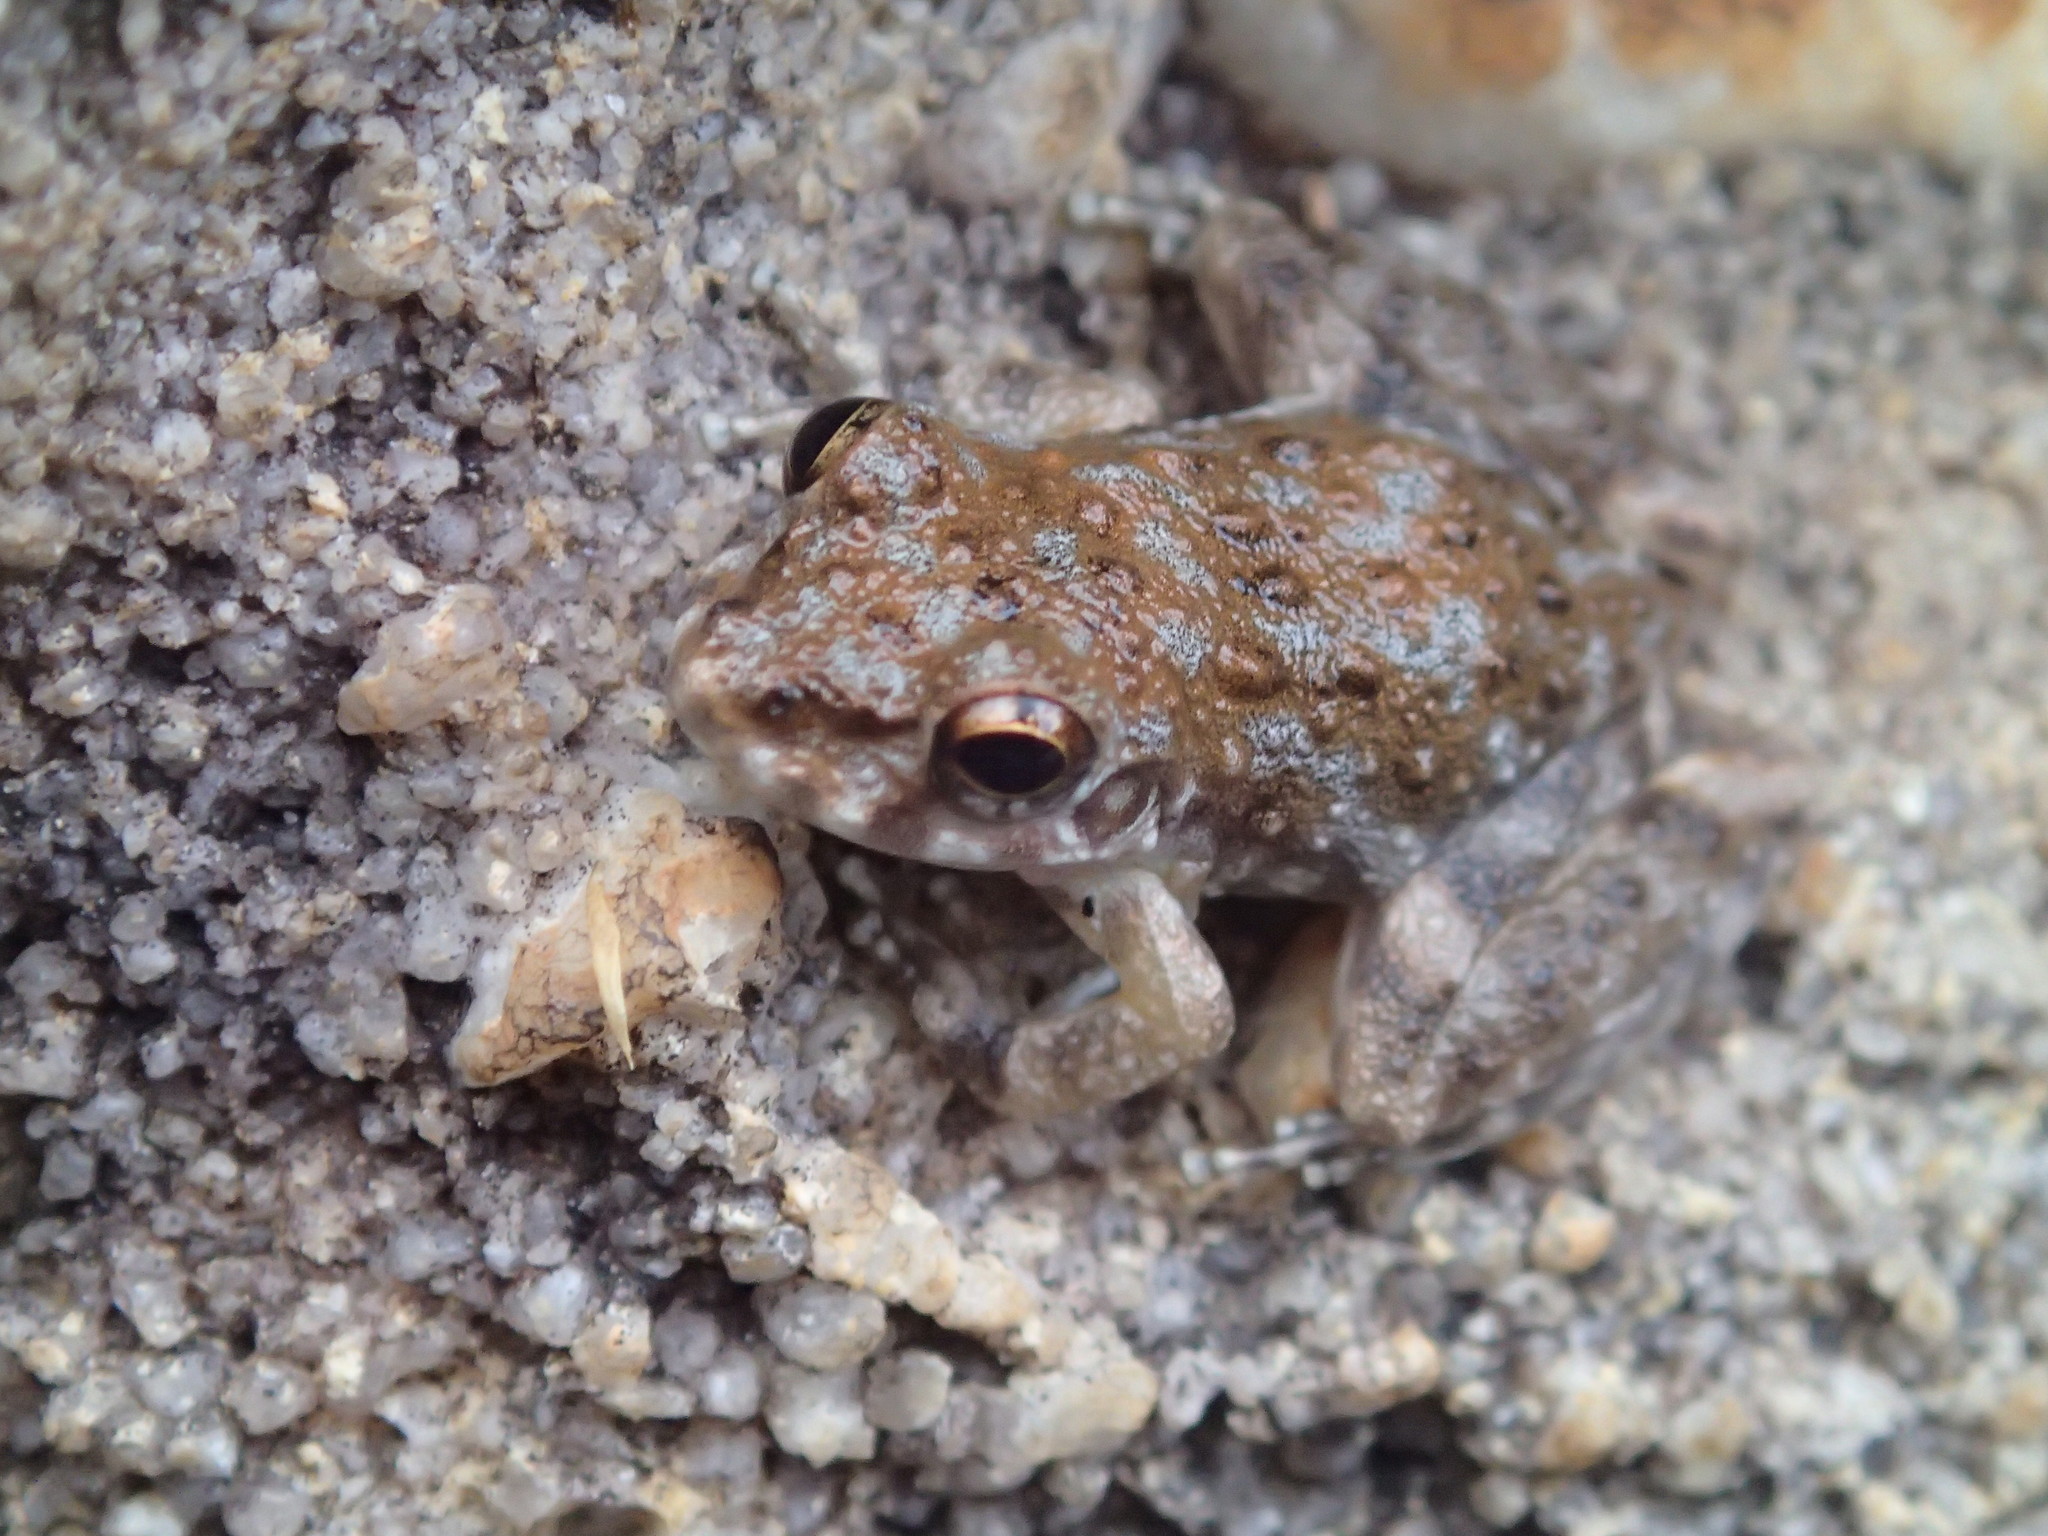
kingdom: Animalia
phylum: Chordata
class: Amphibia
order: Anura
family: Pelodryadidae
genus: Litoria
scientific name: Litoria meiriana
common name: Rockhole frog
